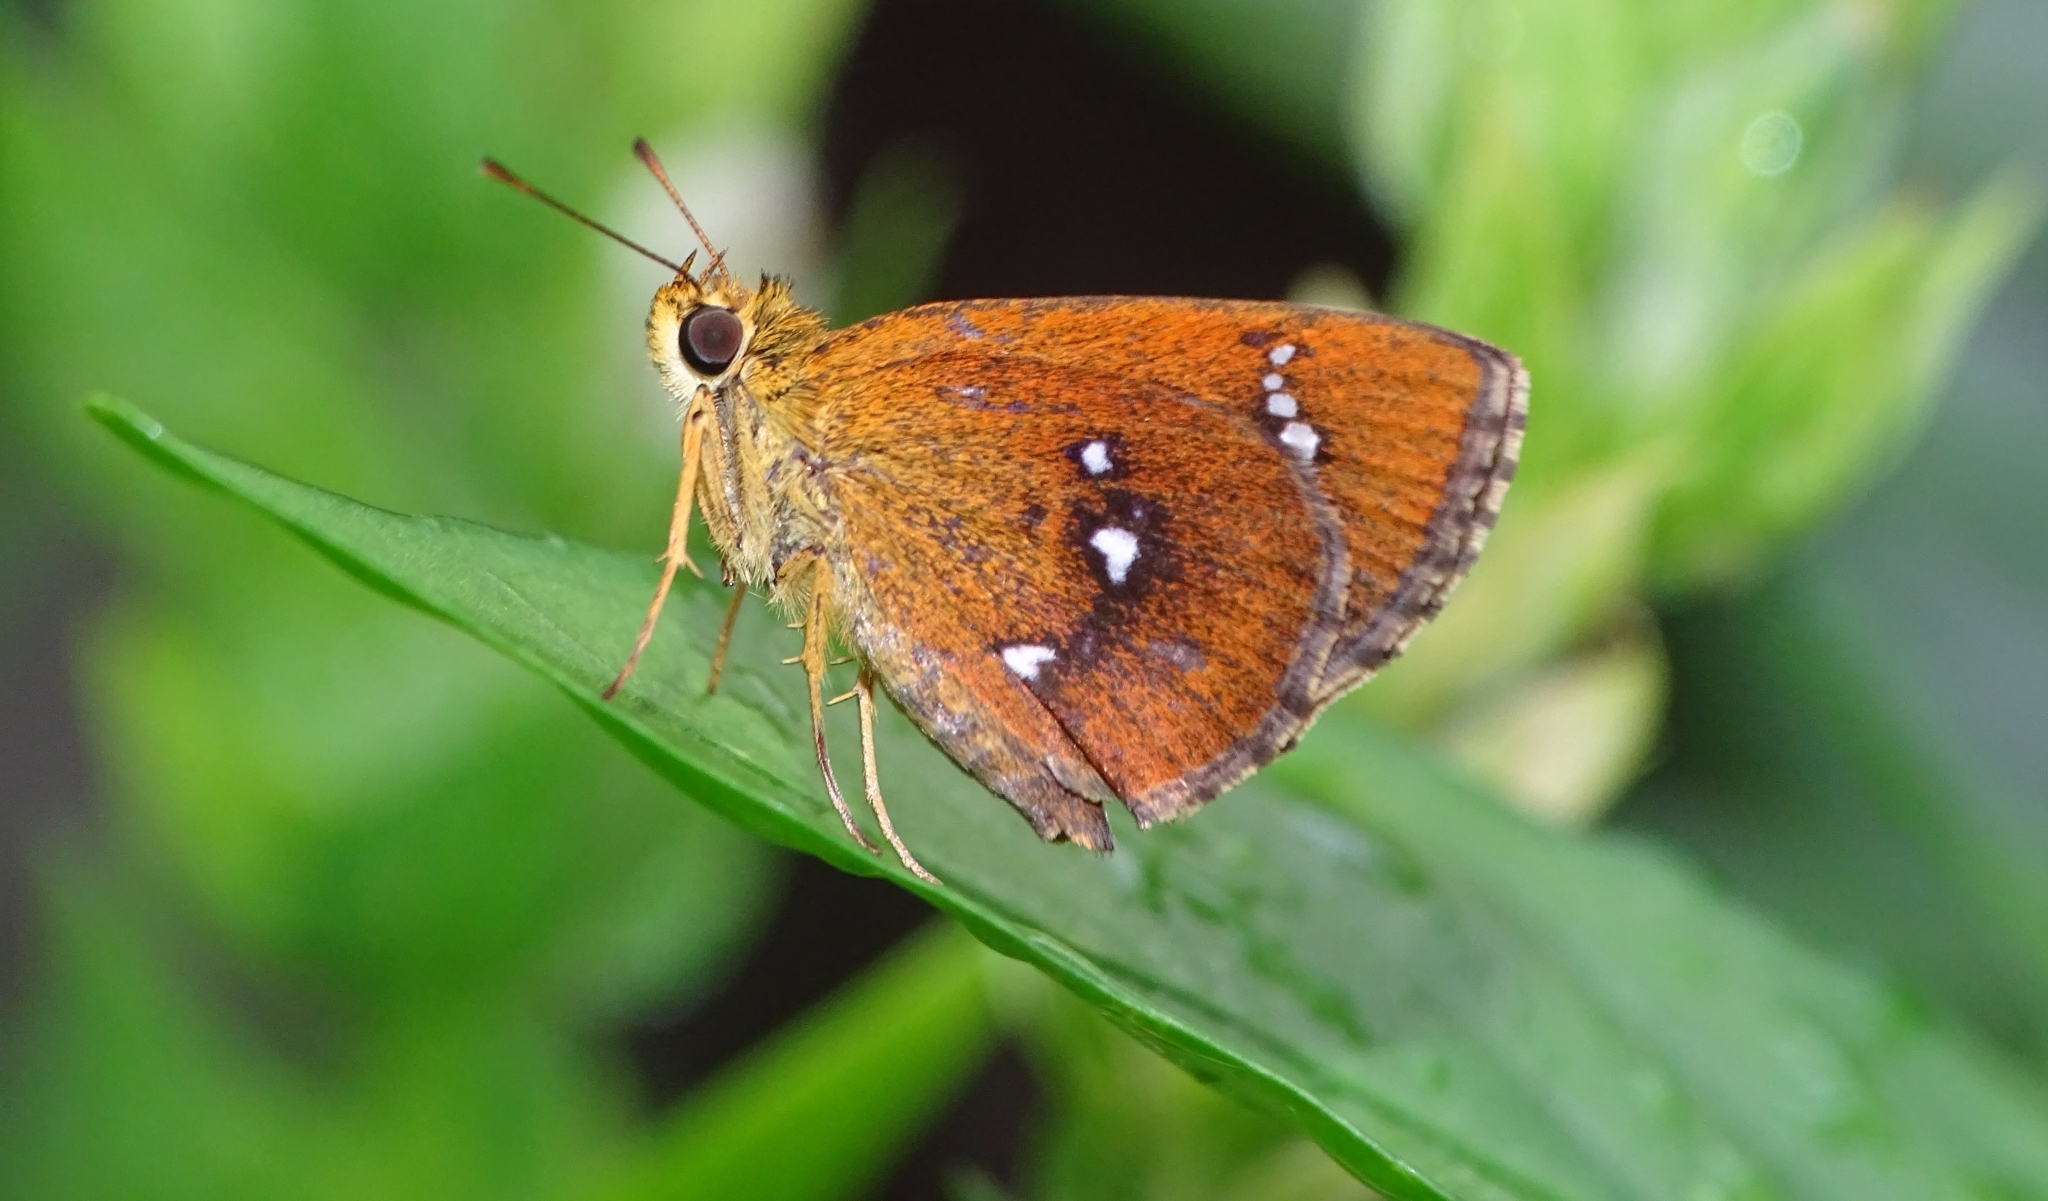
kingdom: Animalia
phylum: Arthropoda
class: Insecta
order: Lepidoptera
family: Hesperiidae
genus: Iambrix
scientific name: Iambrix salsala
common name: Chestnut bob
